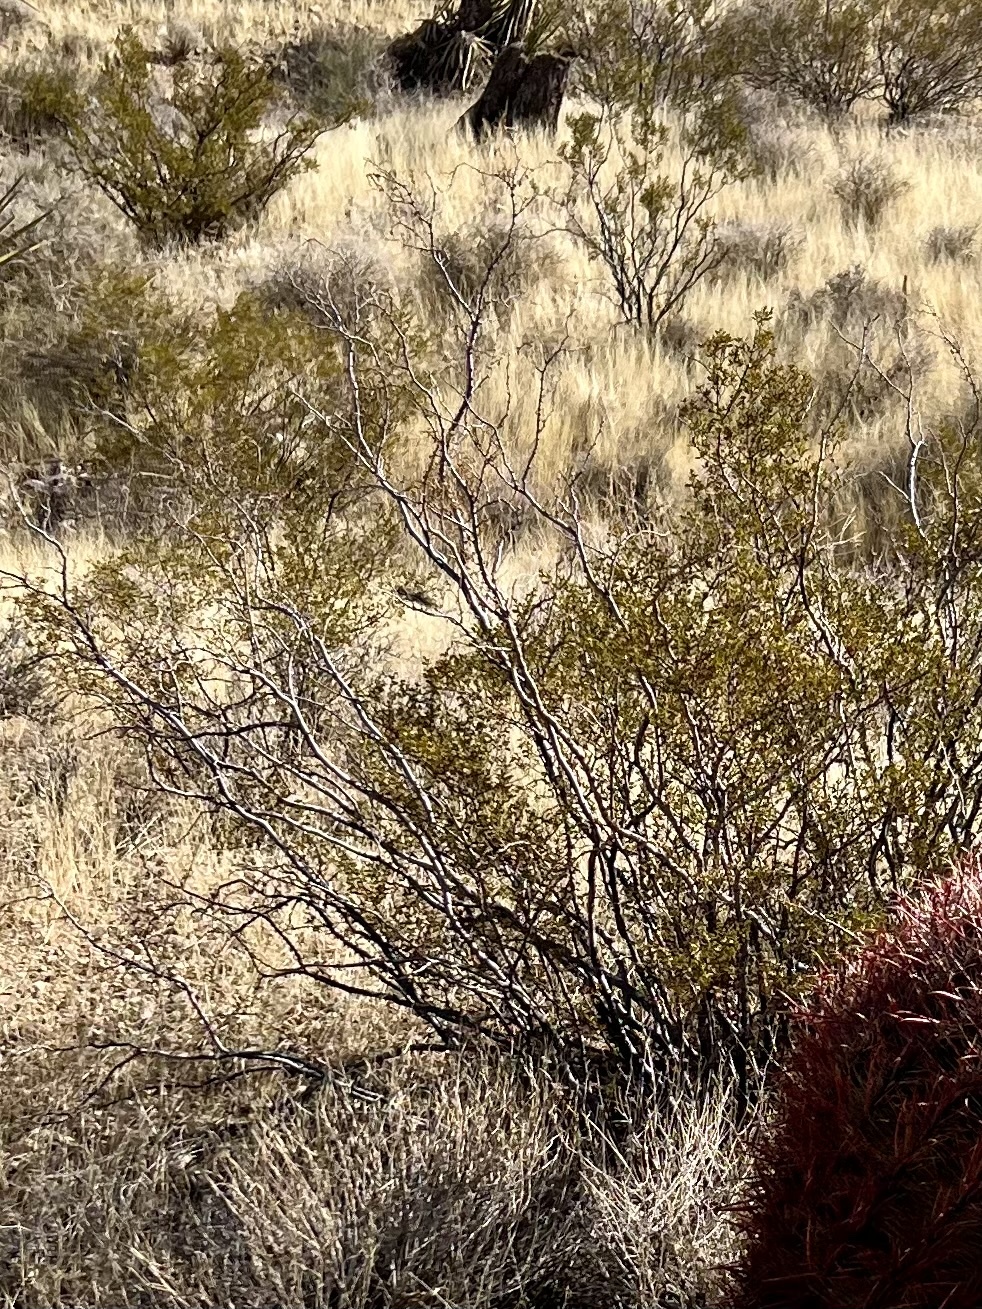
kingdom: Plantae
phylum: Tracheophyta
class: Magnoliopsida
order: Zygophyllales
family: Zygophyllaceae
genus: Larrea
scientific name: Larrea tridentata
